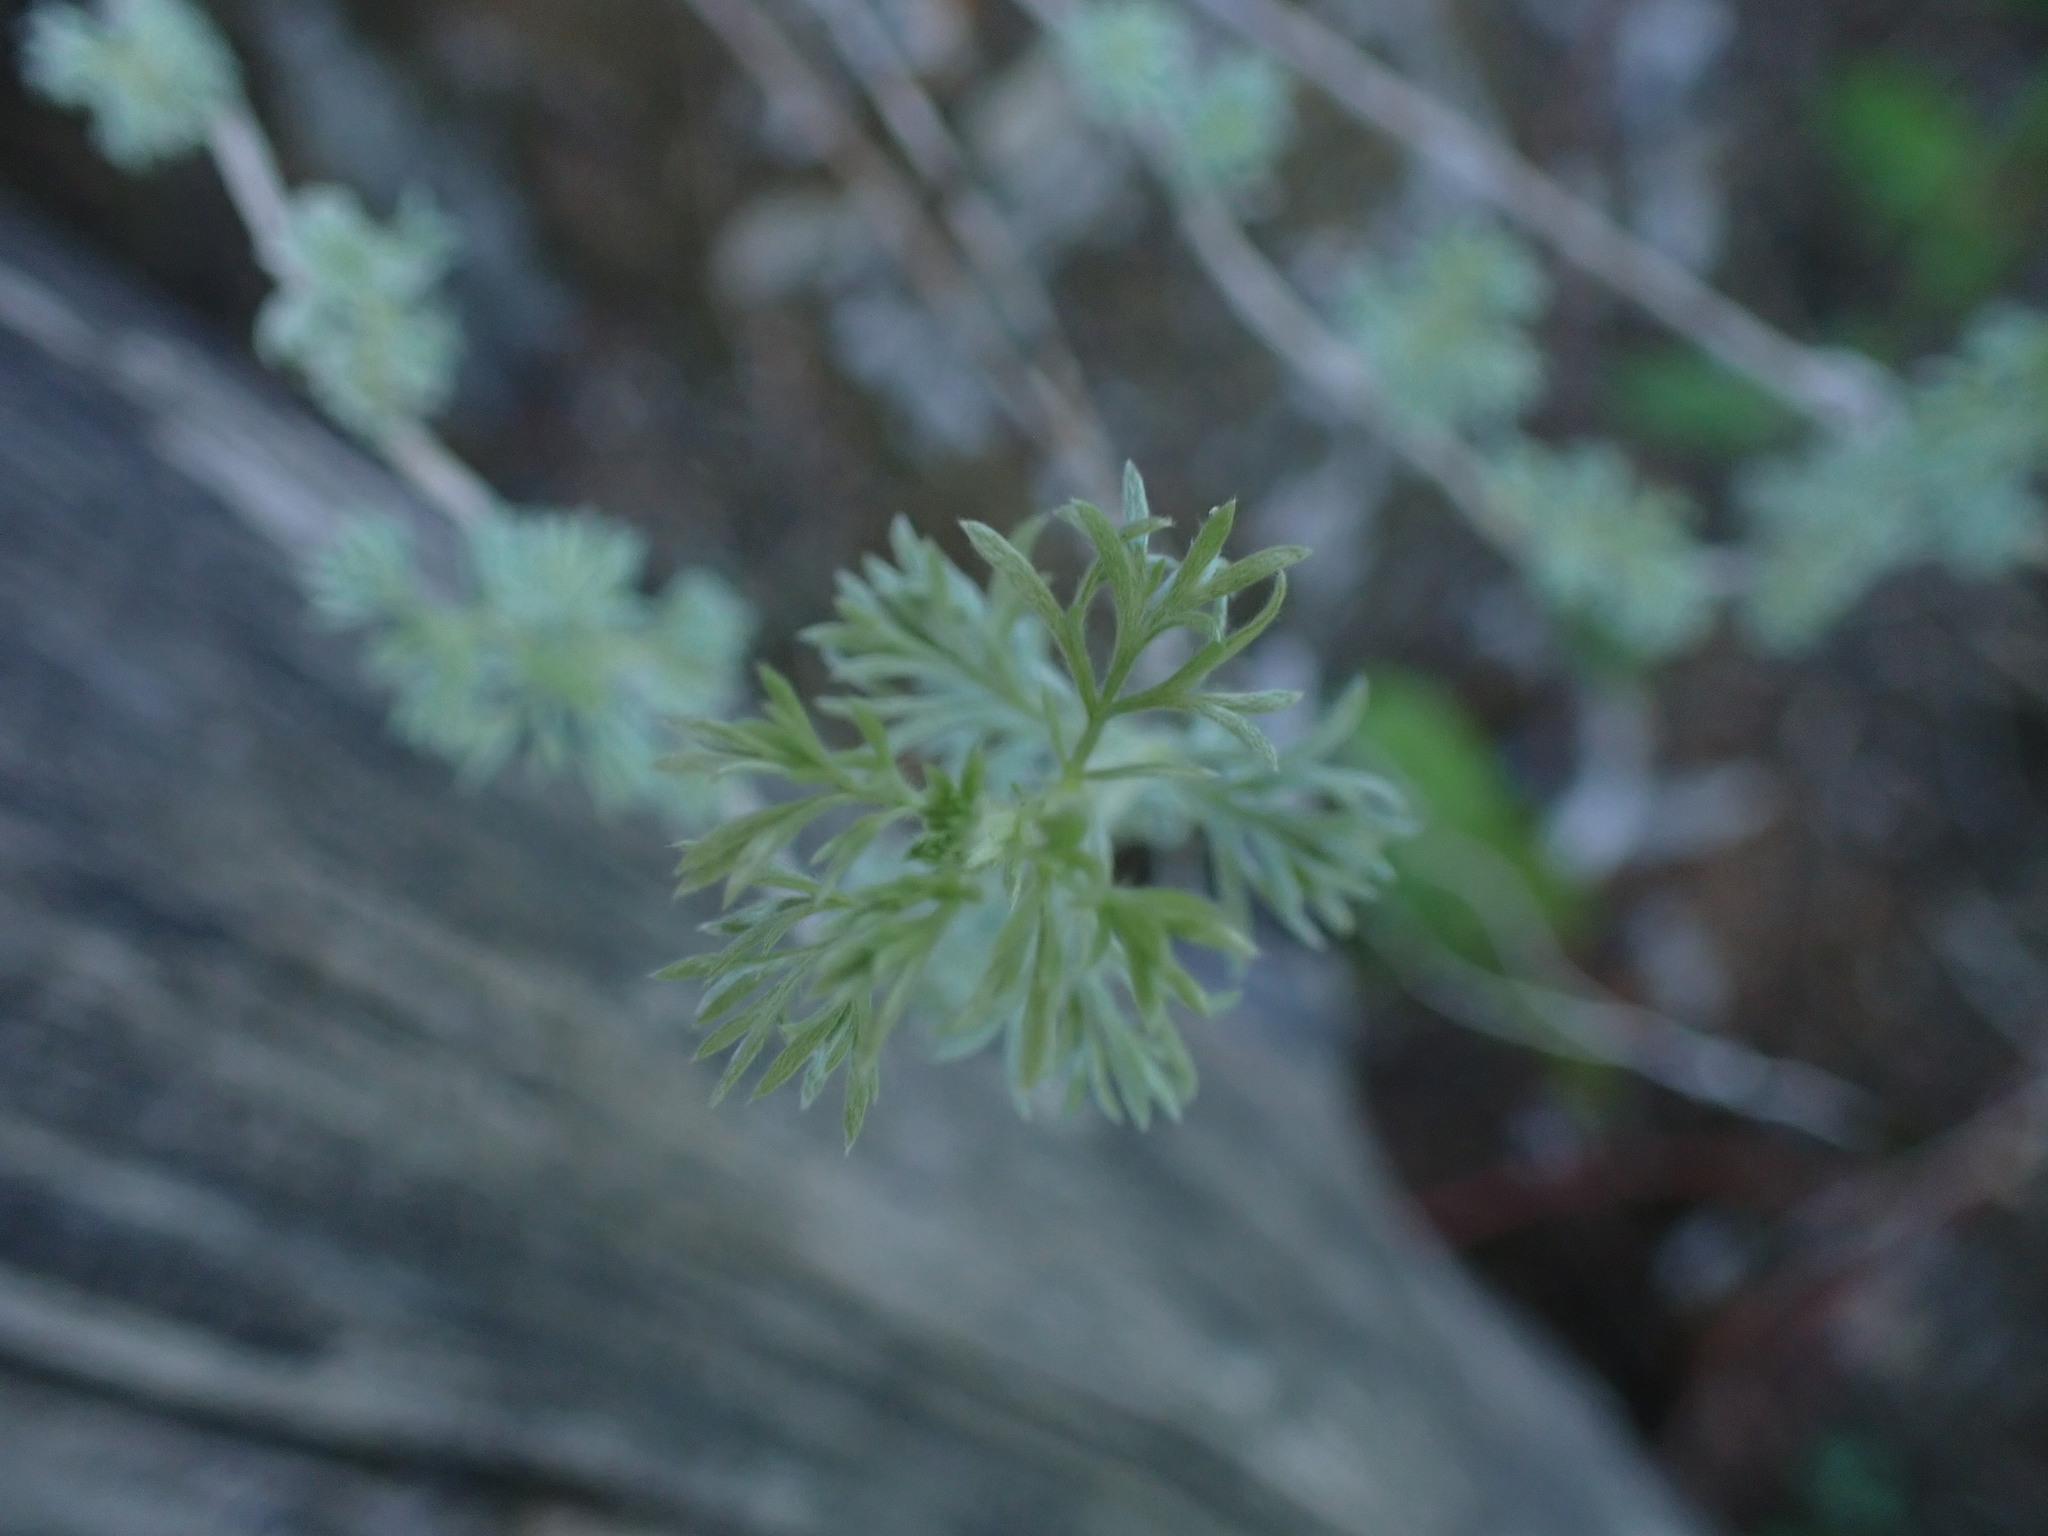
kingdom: Plantae
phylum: Tracheophyta
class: Magnoliopsida
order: Asterales
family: Asteraceae
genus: Artemisia
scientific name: Artemisia frigida
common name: Prairie sagewort
